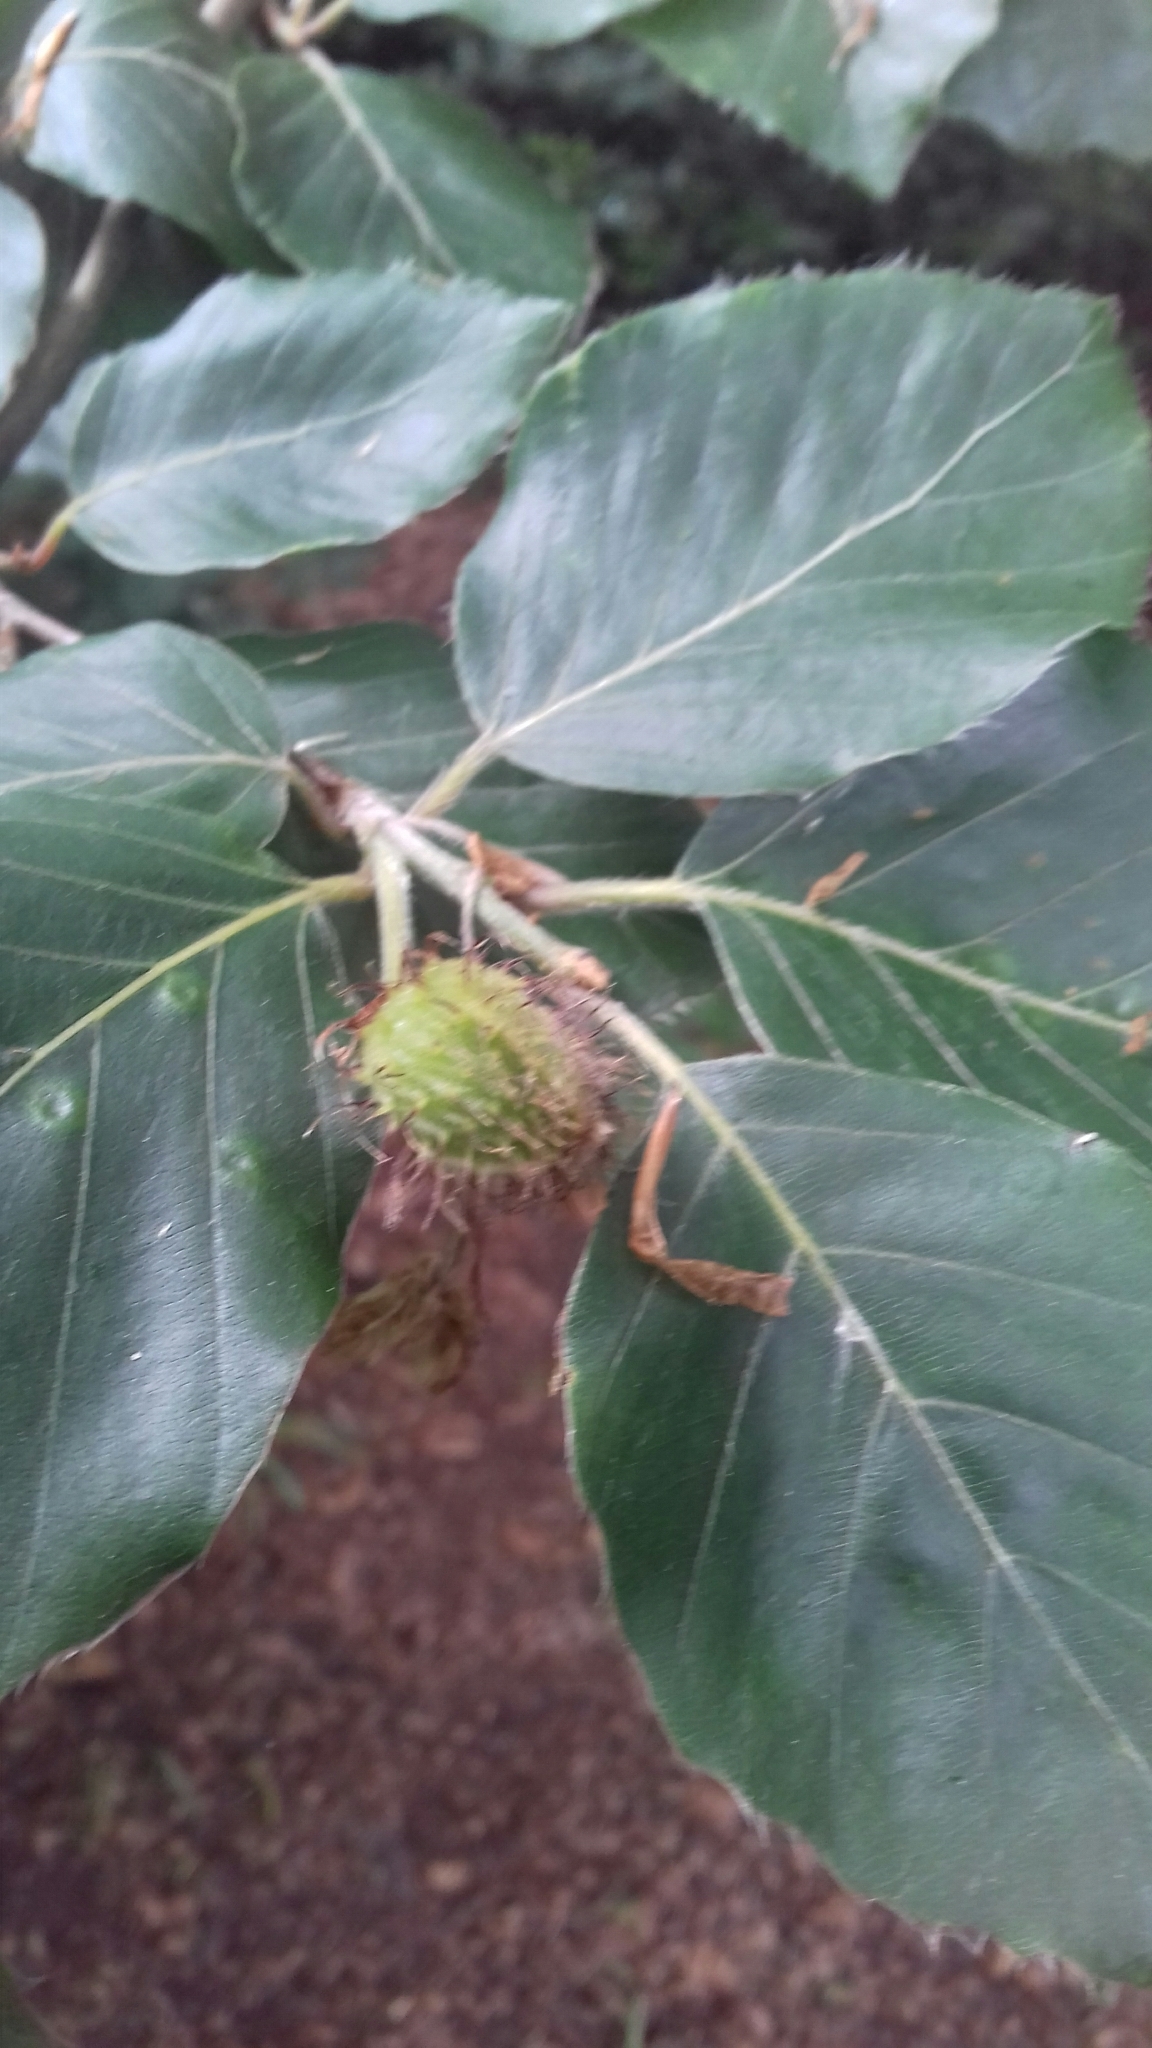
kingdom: Plantae
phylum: Tracheophyta
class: Magnoliopsida
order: Fagales
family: Fagaceae
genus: Fagus
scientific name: Fagus sylvatica
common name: Beech
